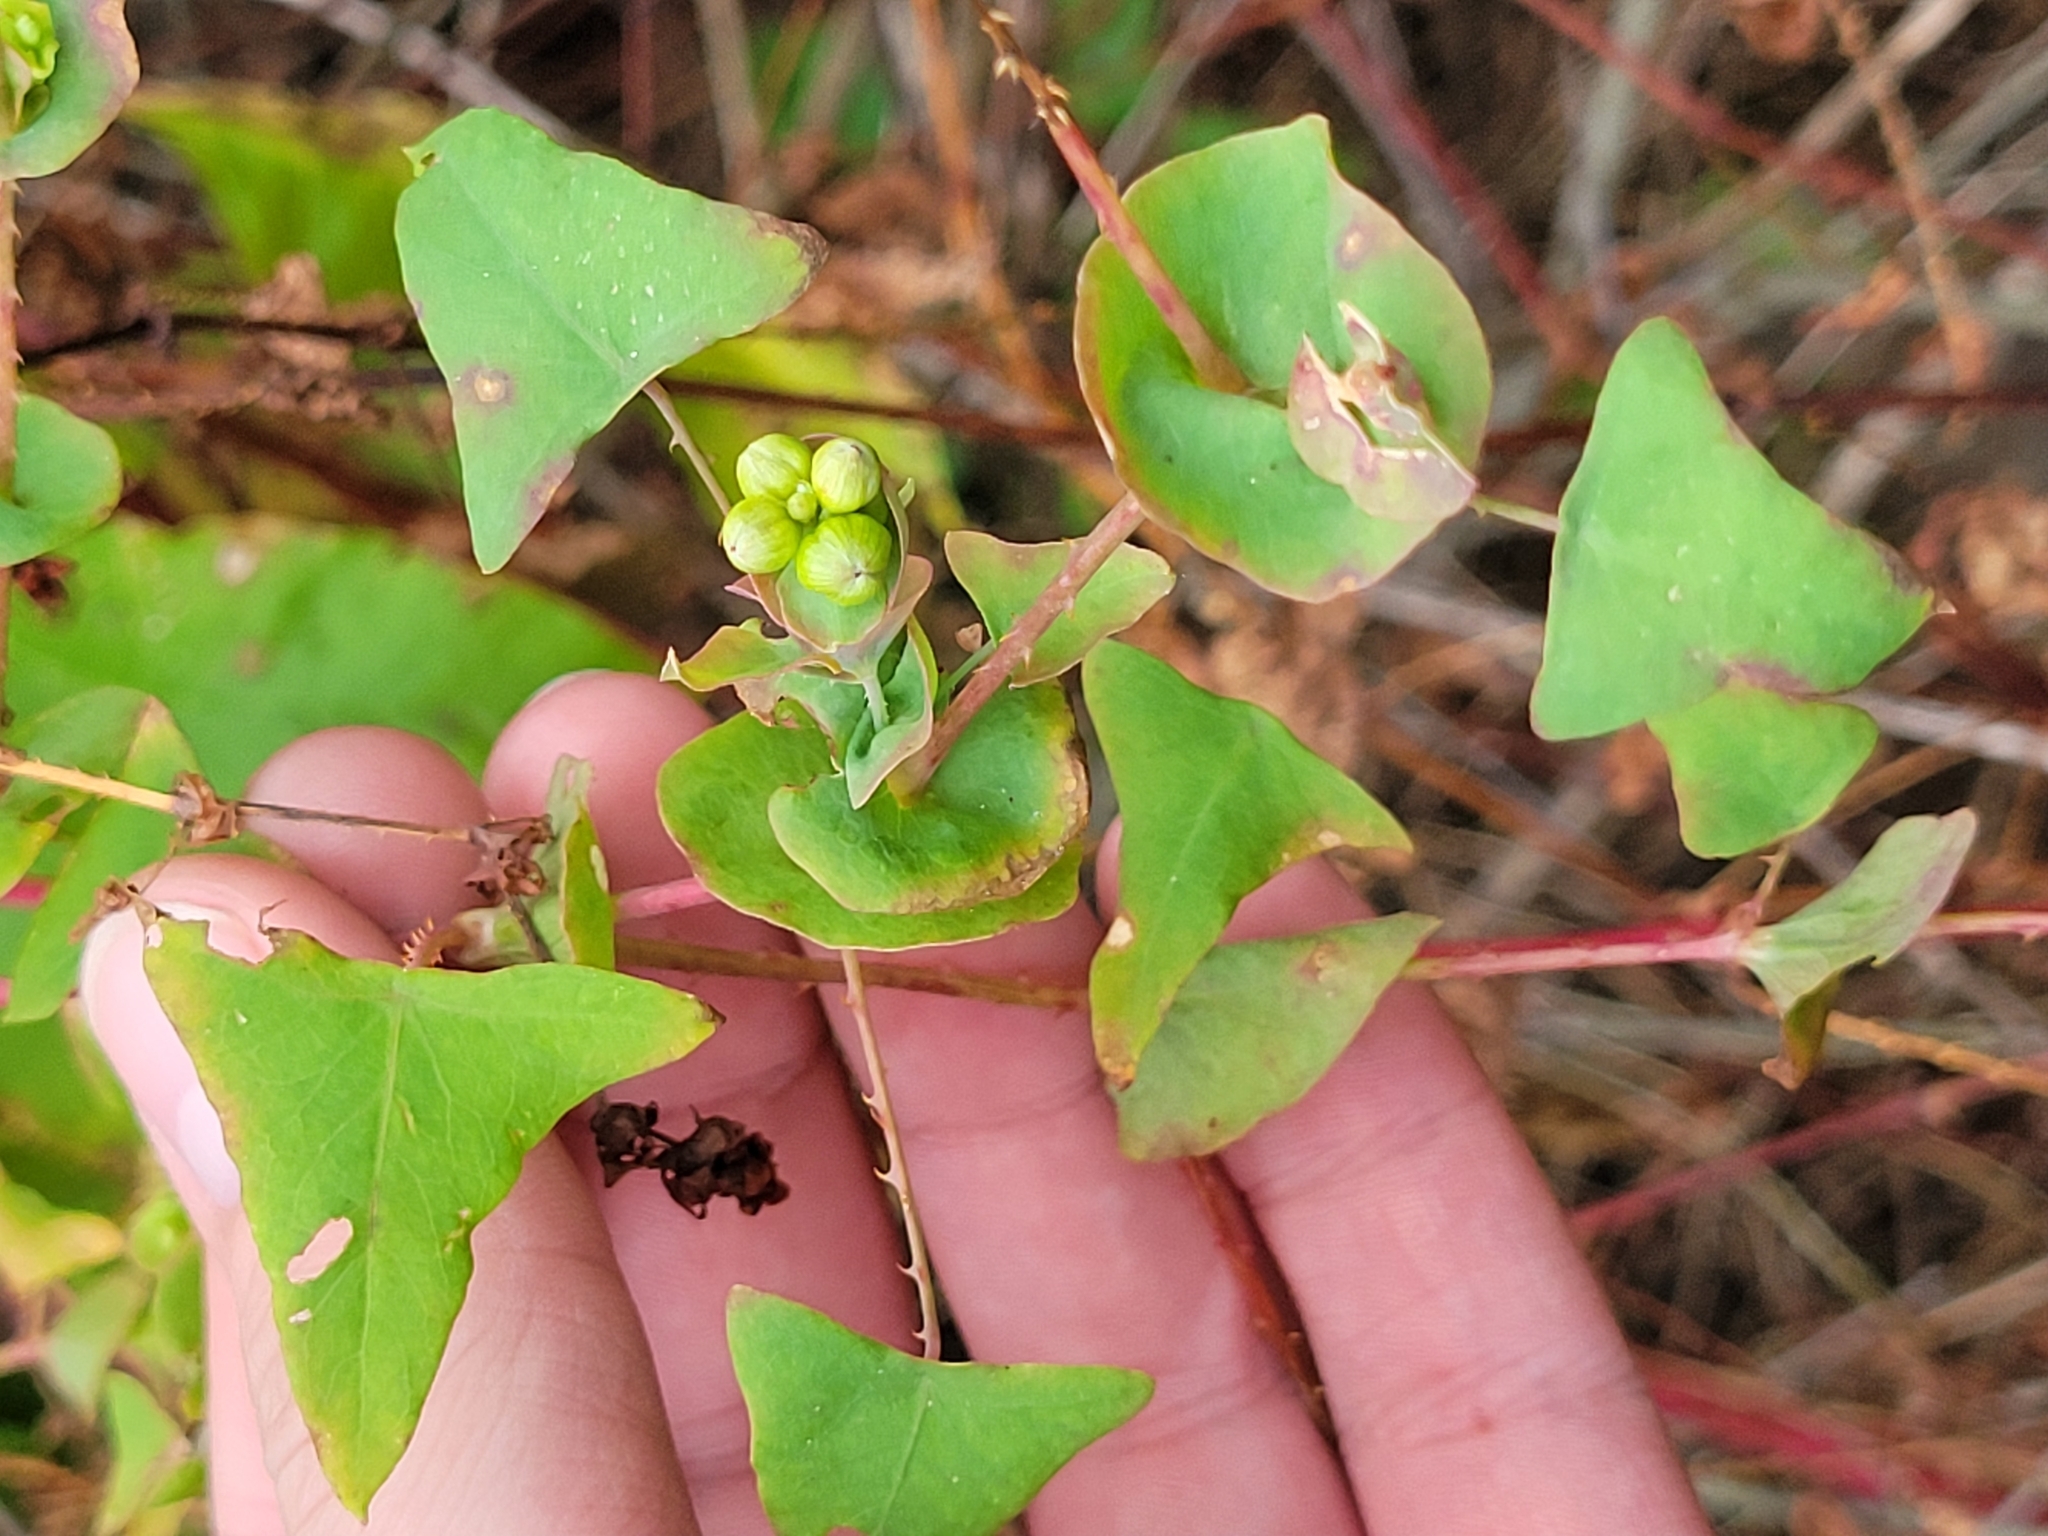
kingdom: Plantae
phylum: Tracheophyta
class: Magnoliopsida
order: Caryophyllales
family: Polygonaceae
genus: Persicaria
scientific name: Persicaria perfoliata
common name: Asiatic tearthumb
